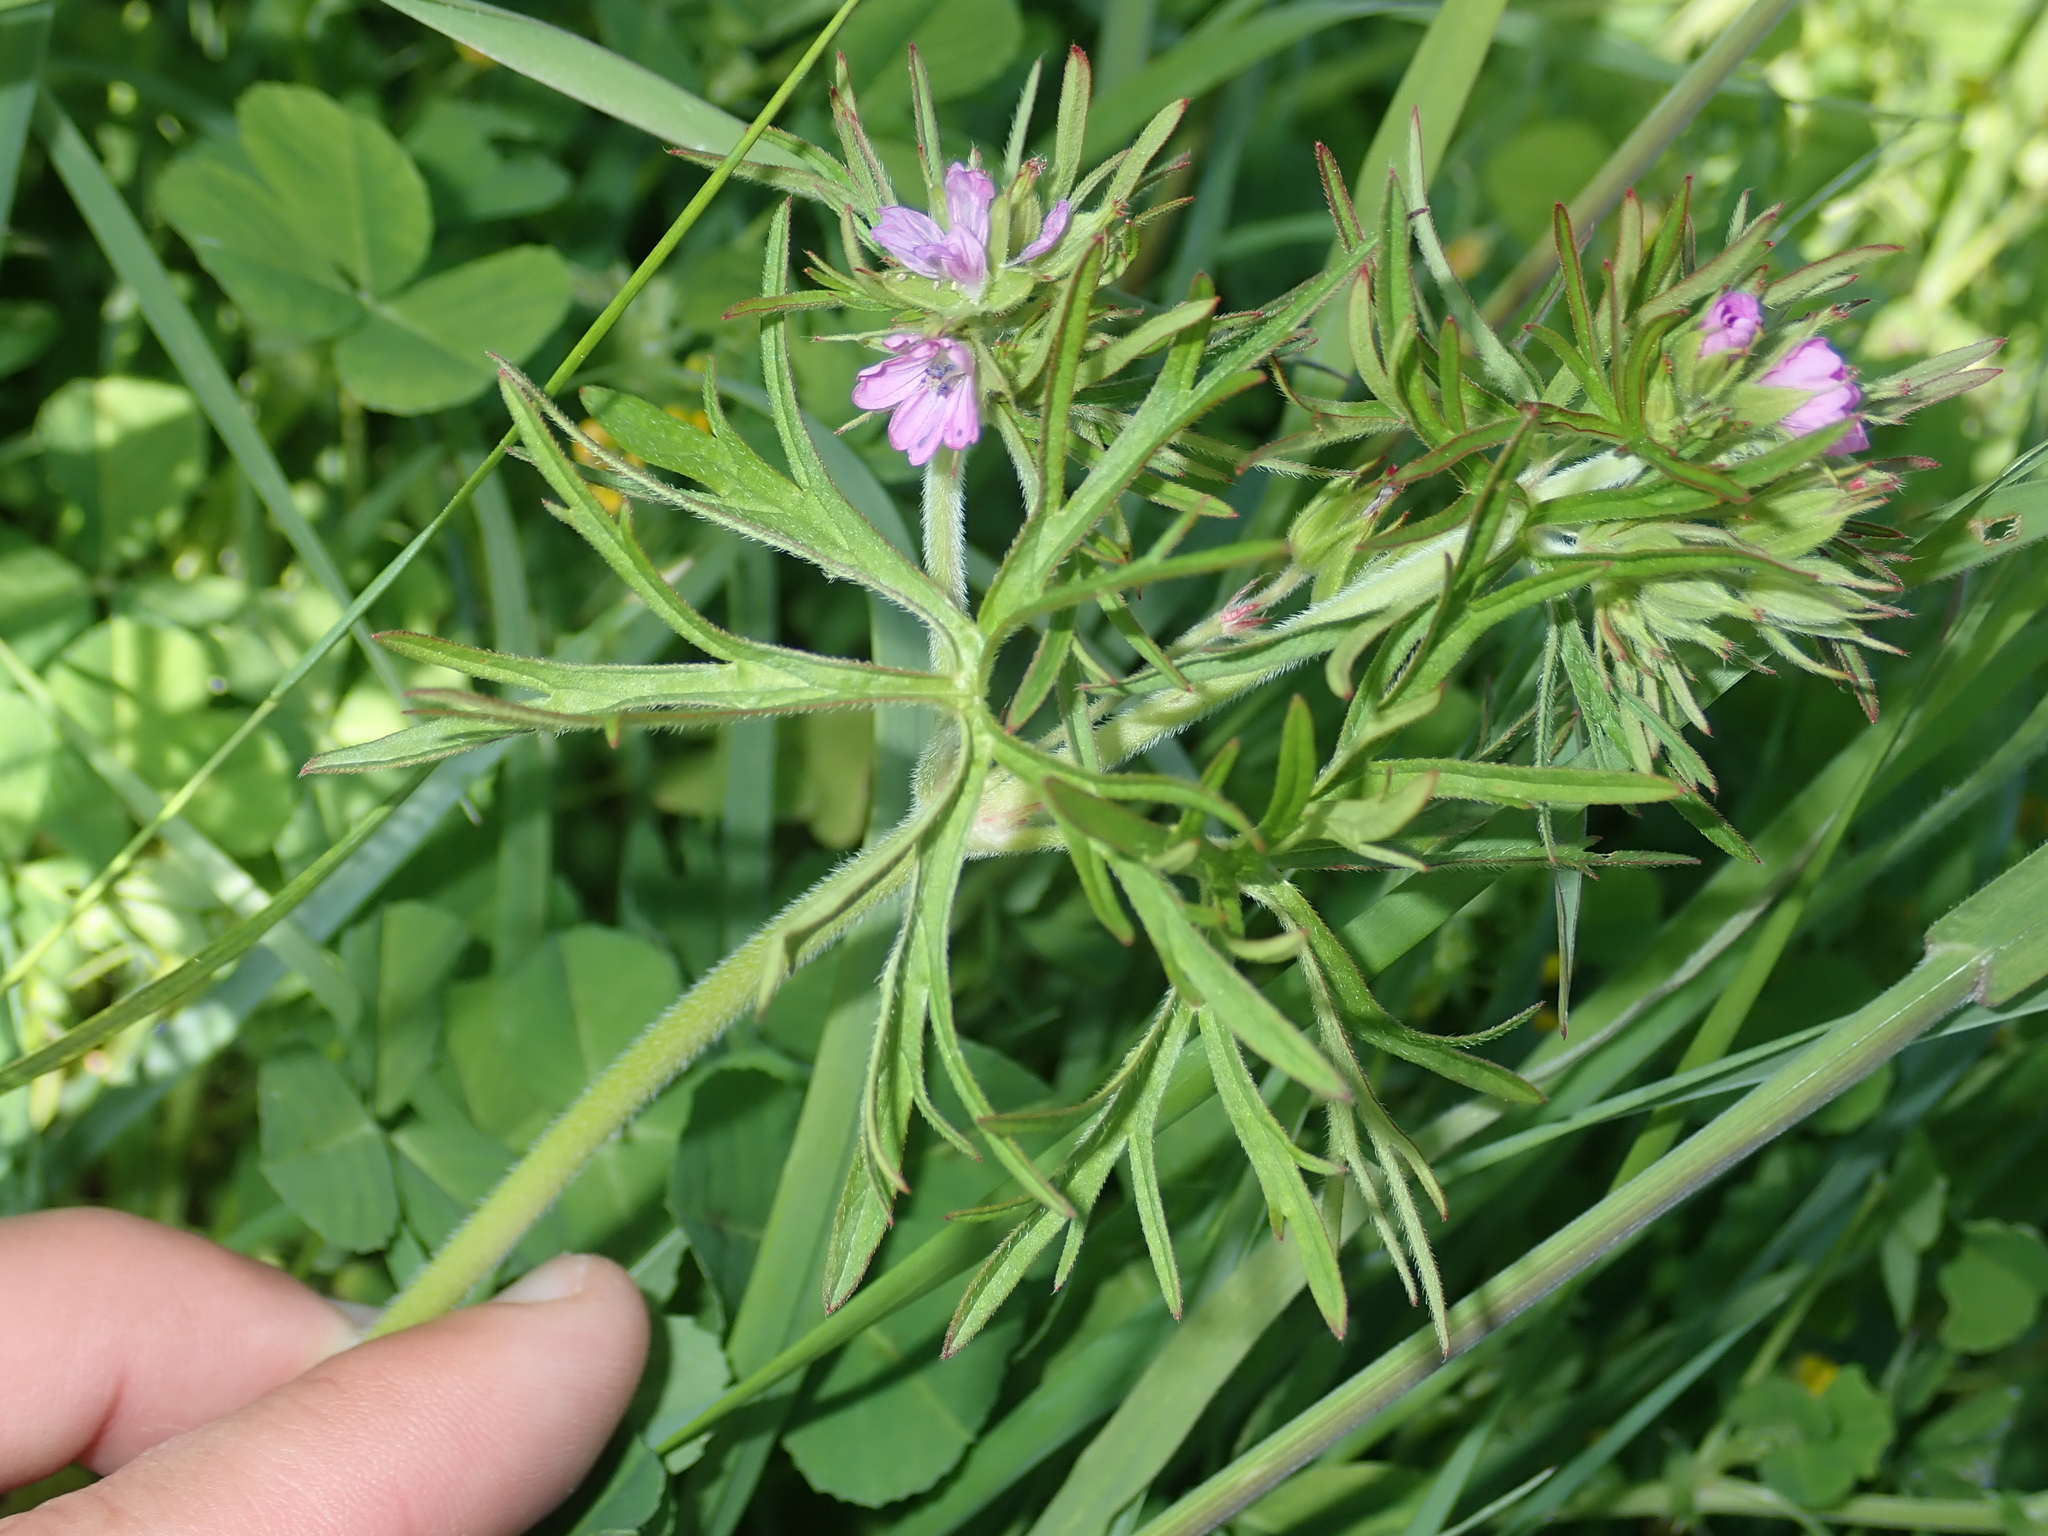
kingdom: Plantae
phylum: Tracheophyta
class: Magnoliopsida
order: Geraniales
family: Geraniaceae
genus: Geranium
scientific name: Geranium dissectum
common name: Cut-leaved crane's-bill
